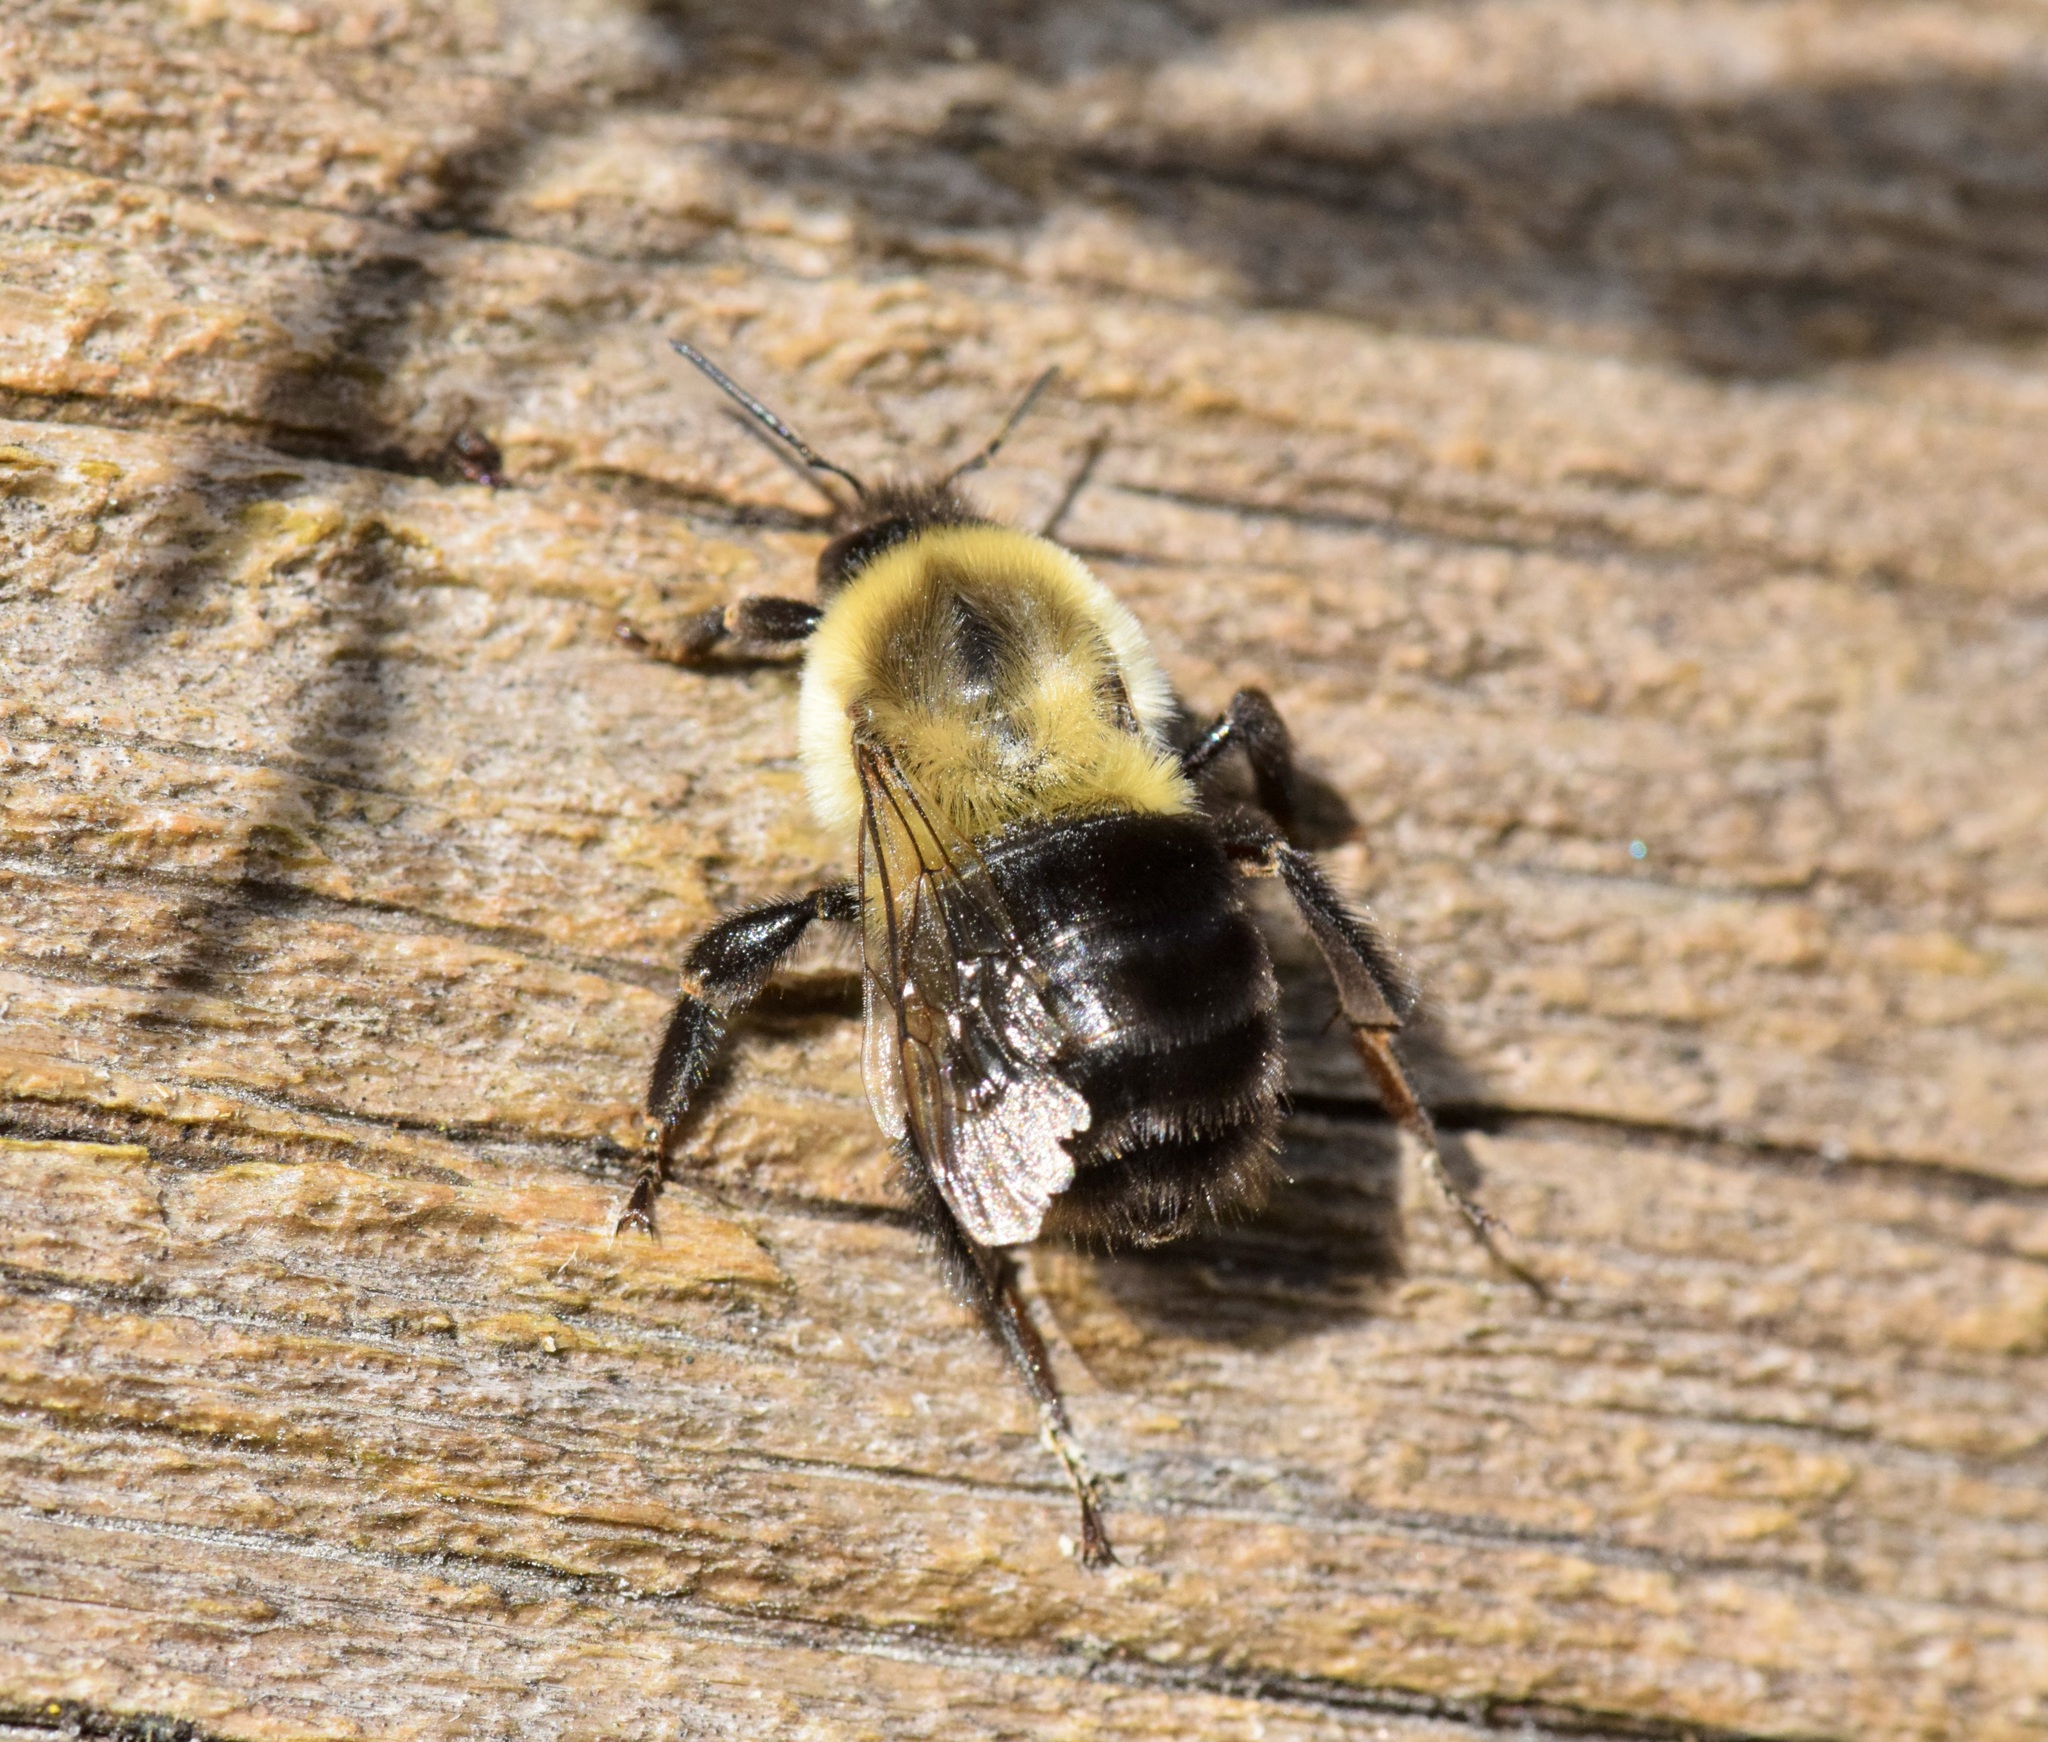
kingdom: Animalia
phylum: Arthropoda
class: Insecta
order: Hymenoptera
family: Apidae
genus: Bombus
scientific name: Bombus impatiens
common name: Common eastern bumble bee
